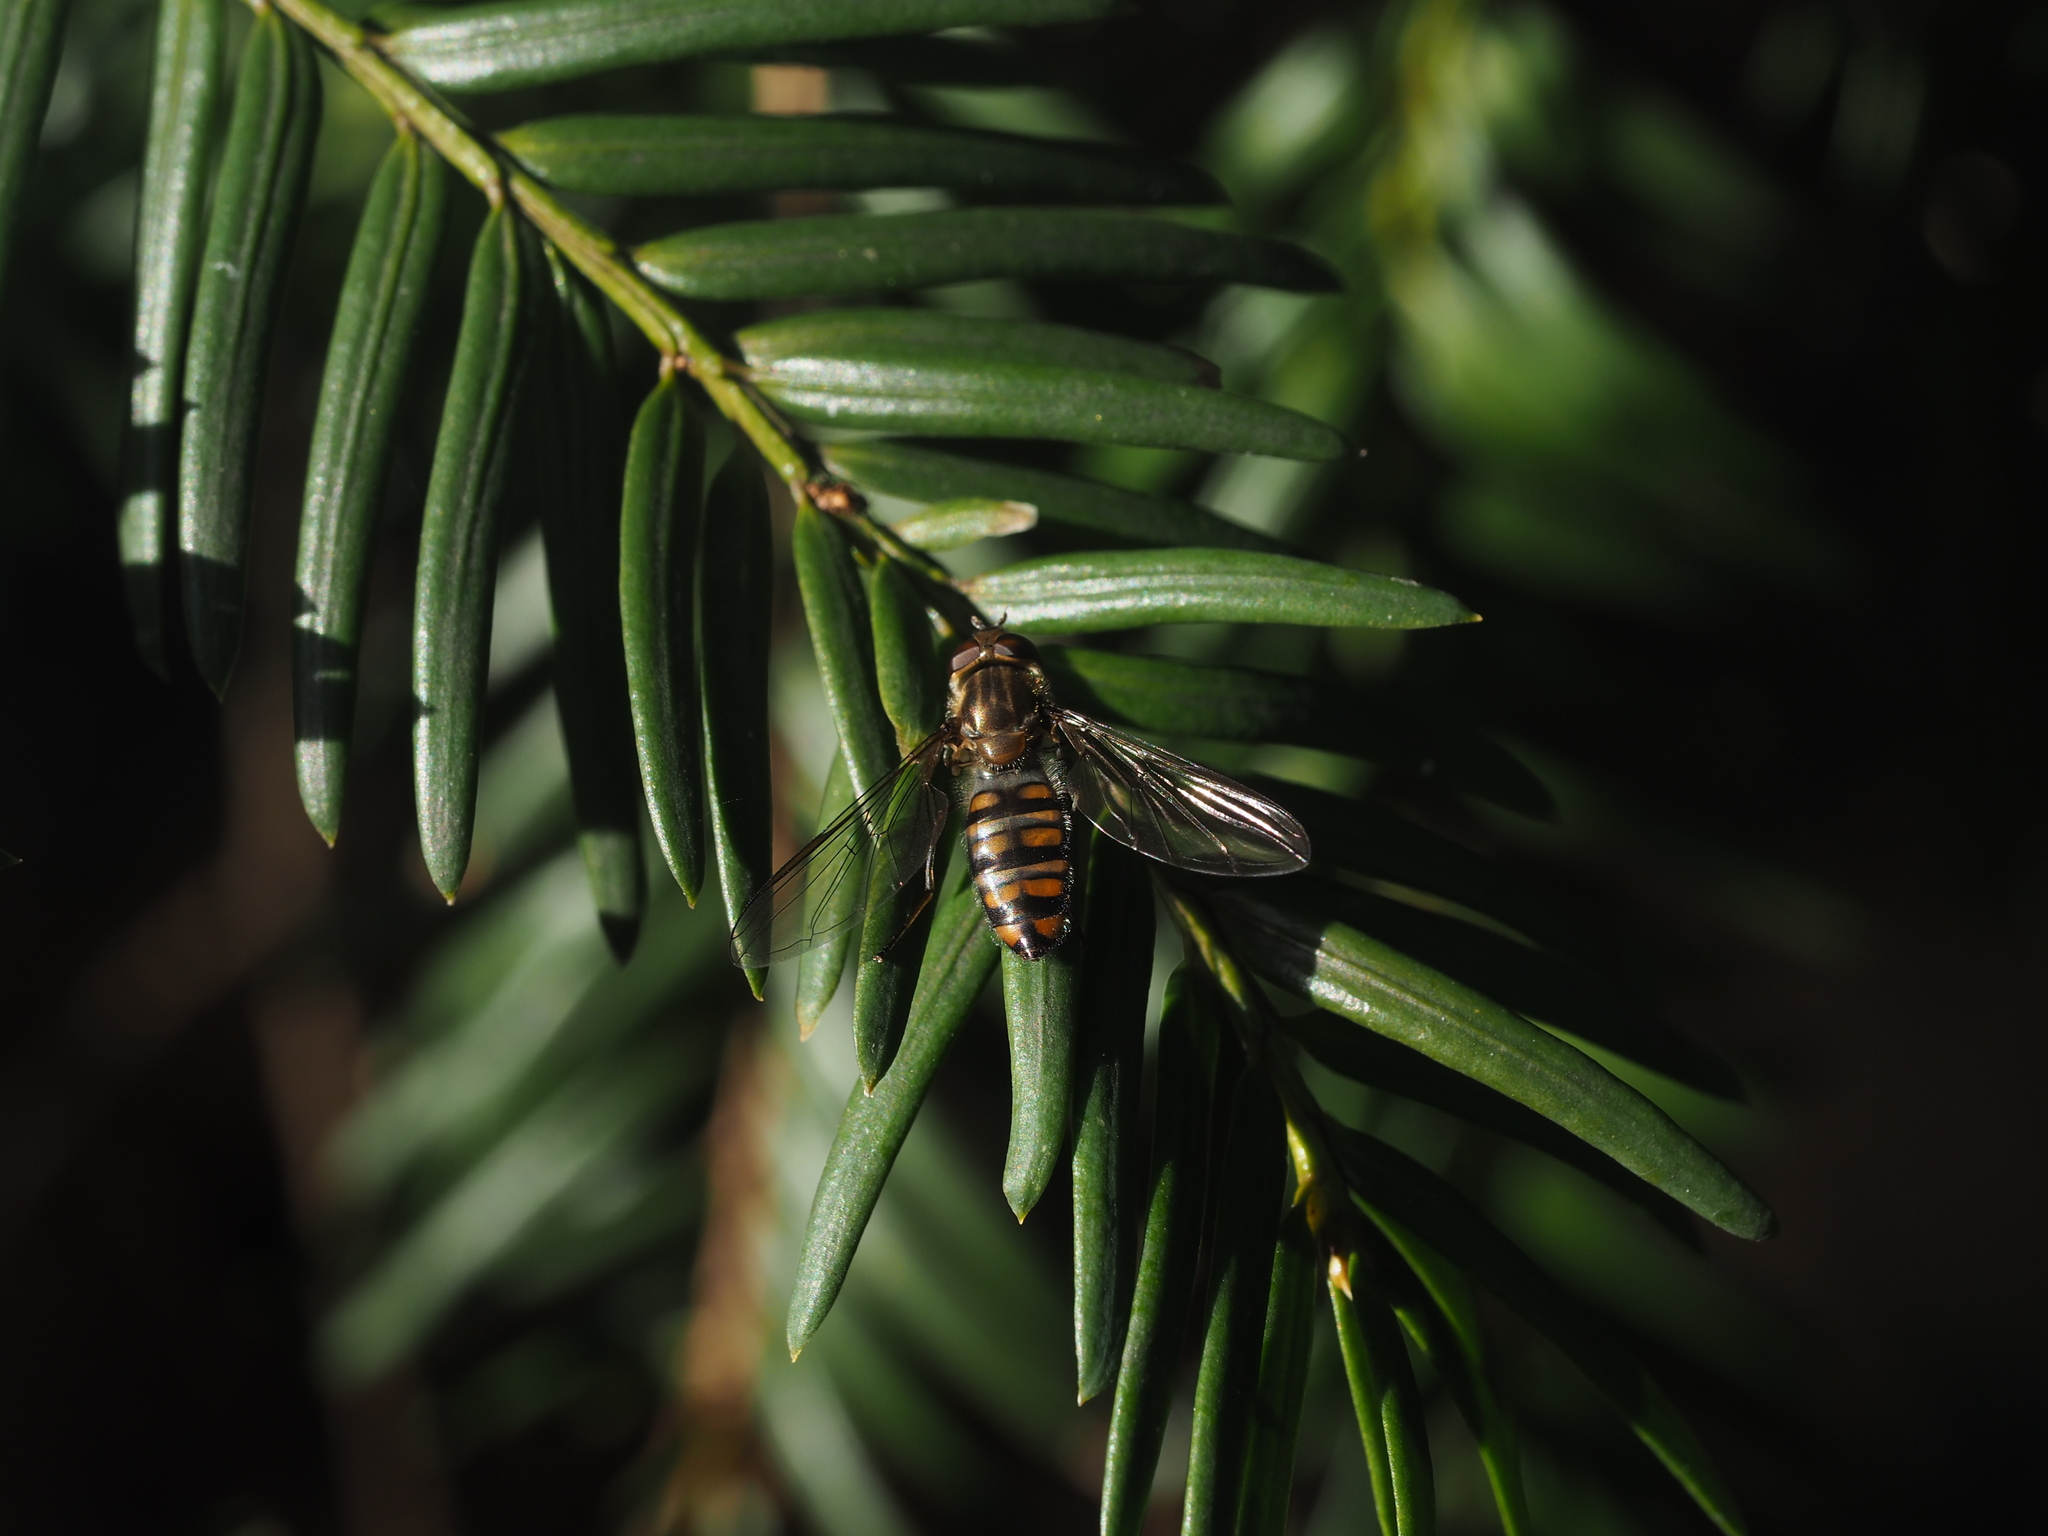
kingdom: Animalia
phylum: Arthropoda
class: Insecta
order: Diptera
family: Syrphidae
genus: Episyrphus
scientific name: Episyrphus balteatus
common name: Marmalade hoverfly
